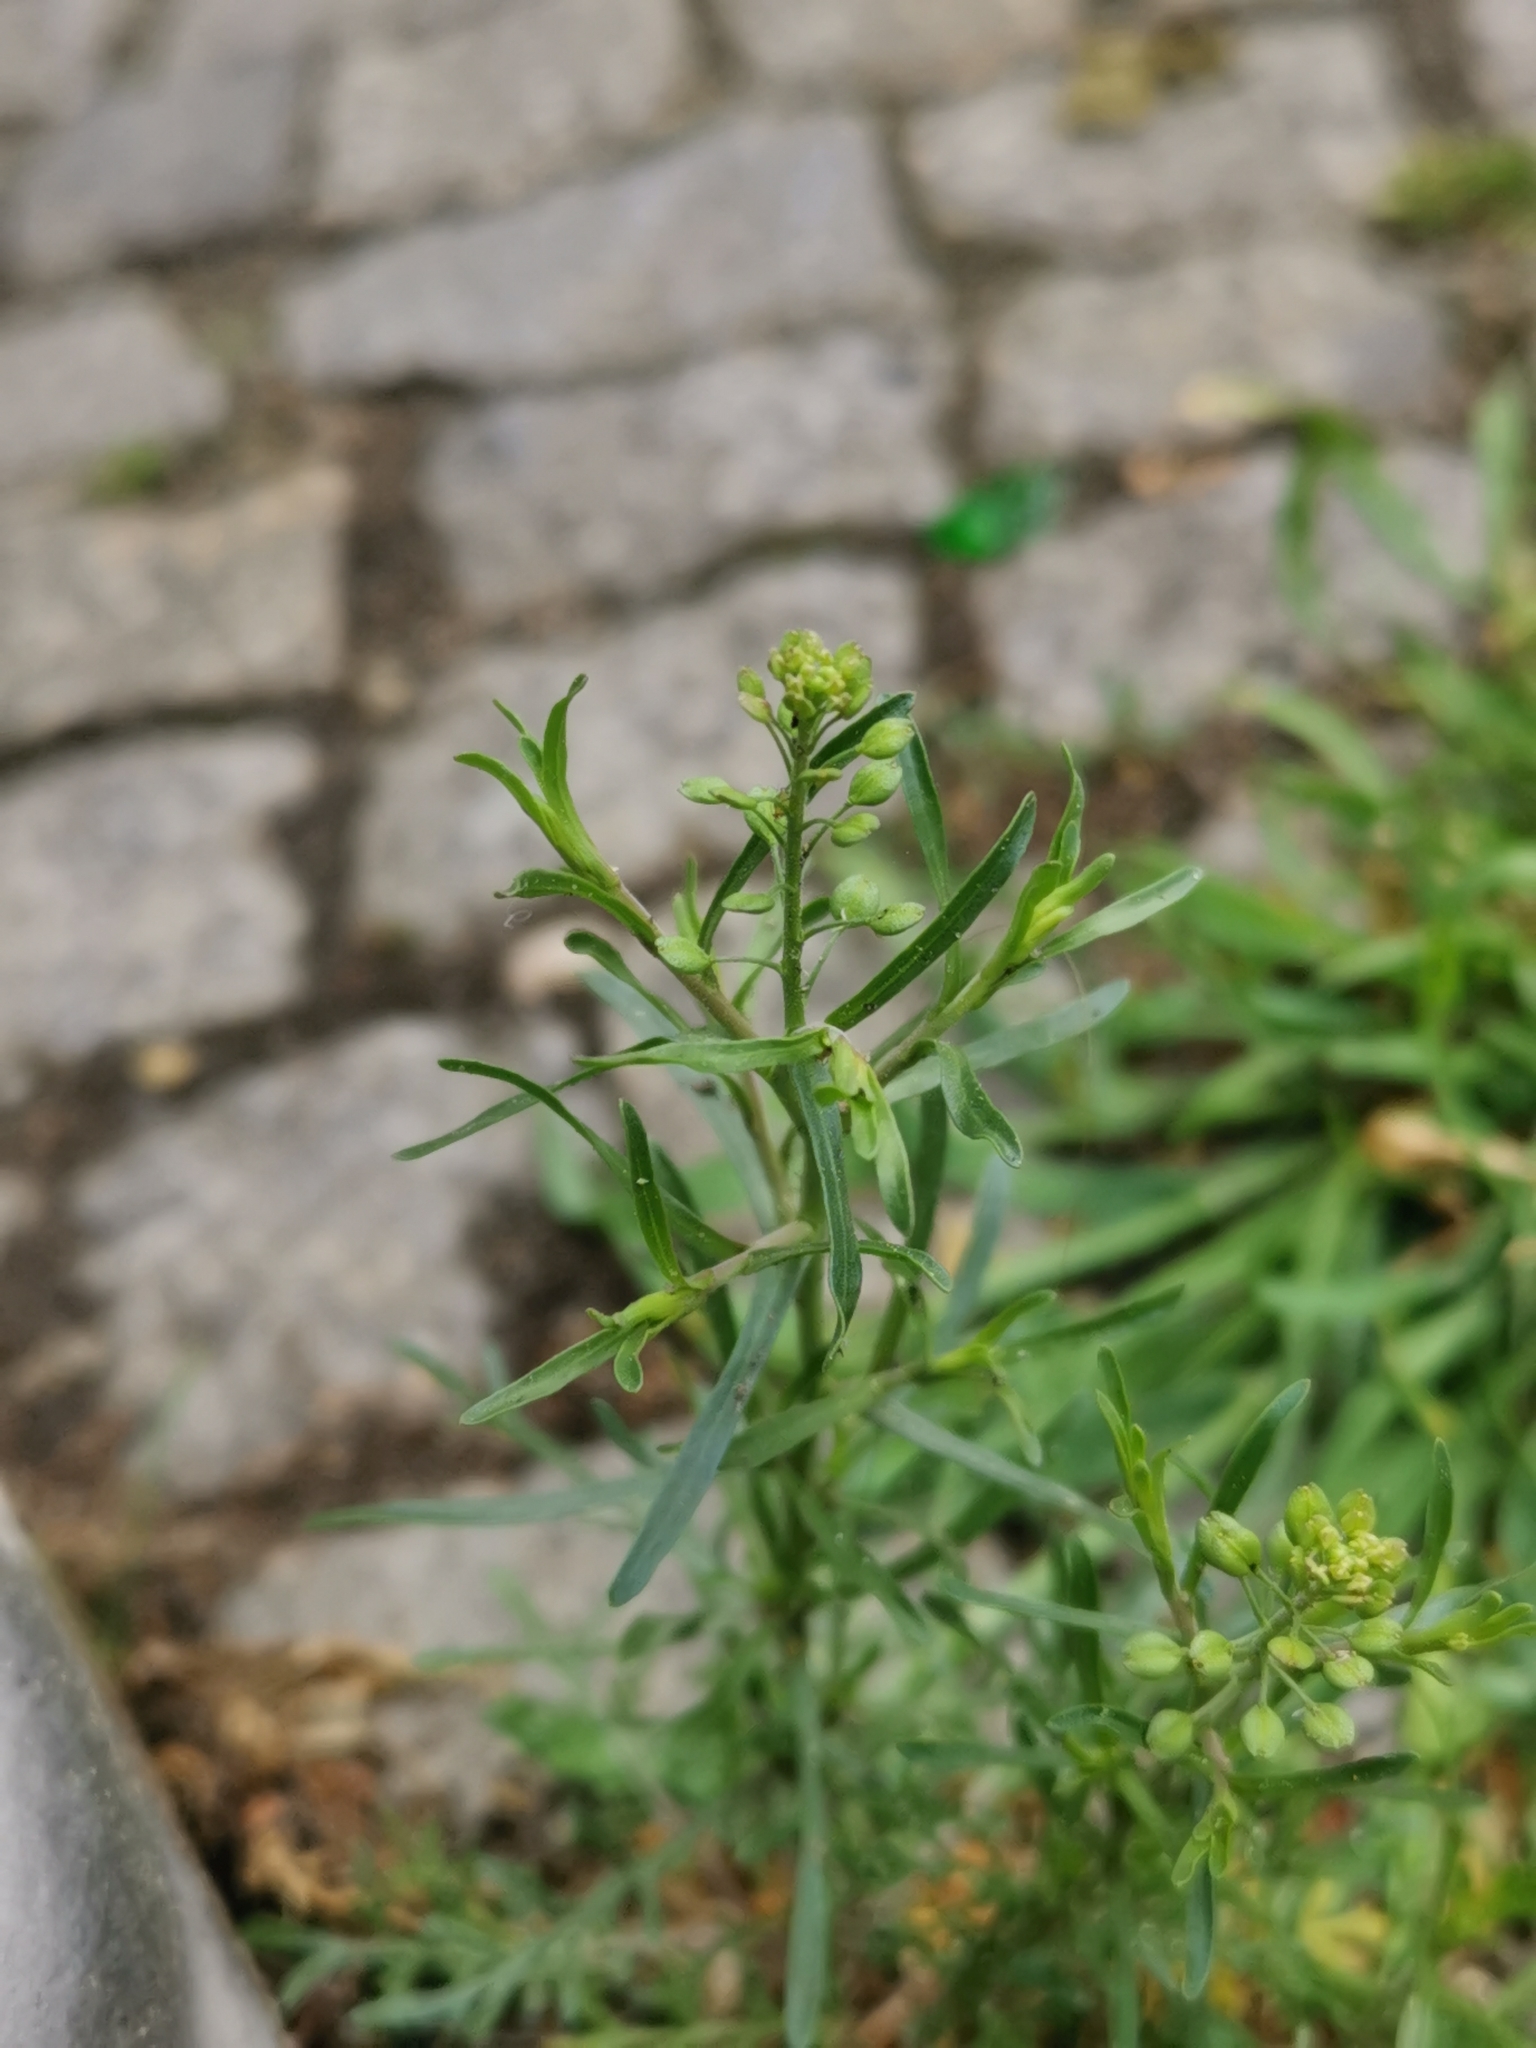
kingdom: Plantae
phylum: Tracheophyta
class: Magnoliopsida
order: Brassicales
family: Brassicaceae
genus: Lepidium
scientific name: Lepidium ruderale
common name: Narrow-leaved pepperwort
